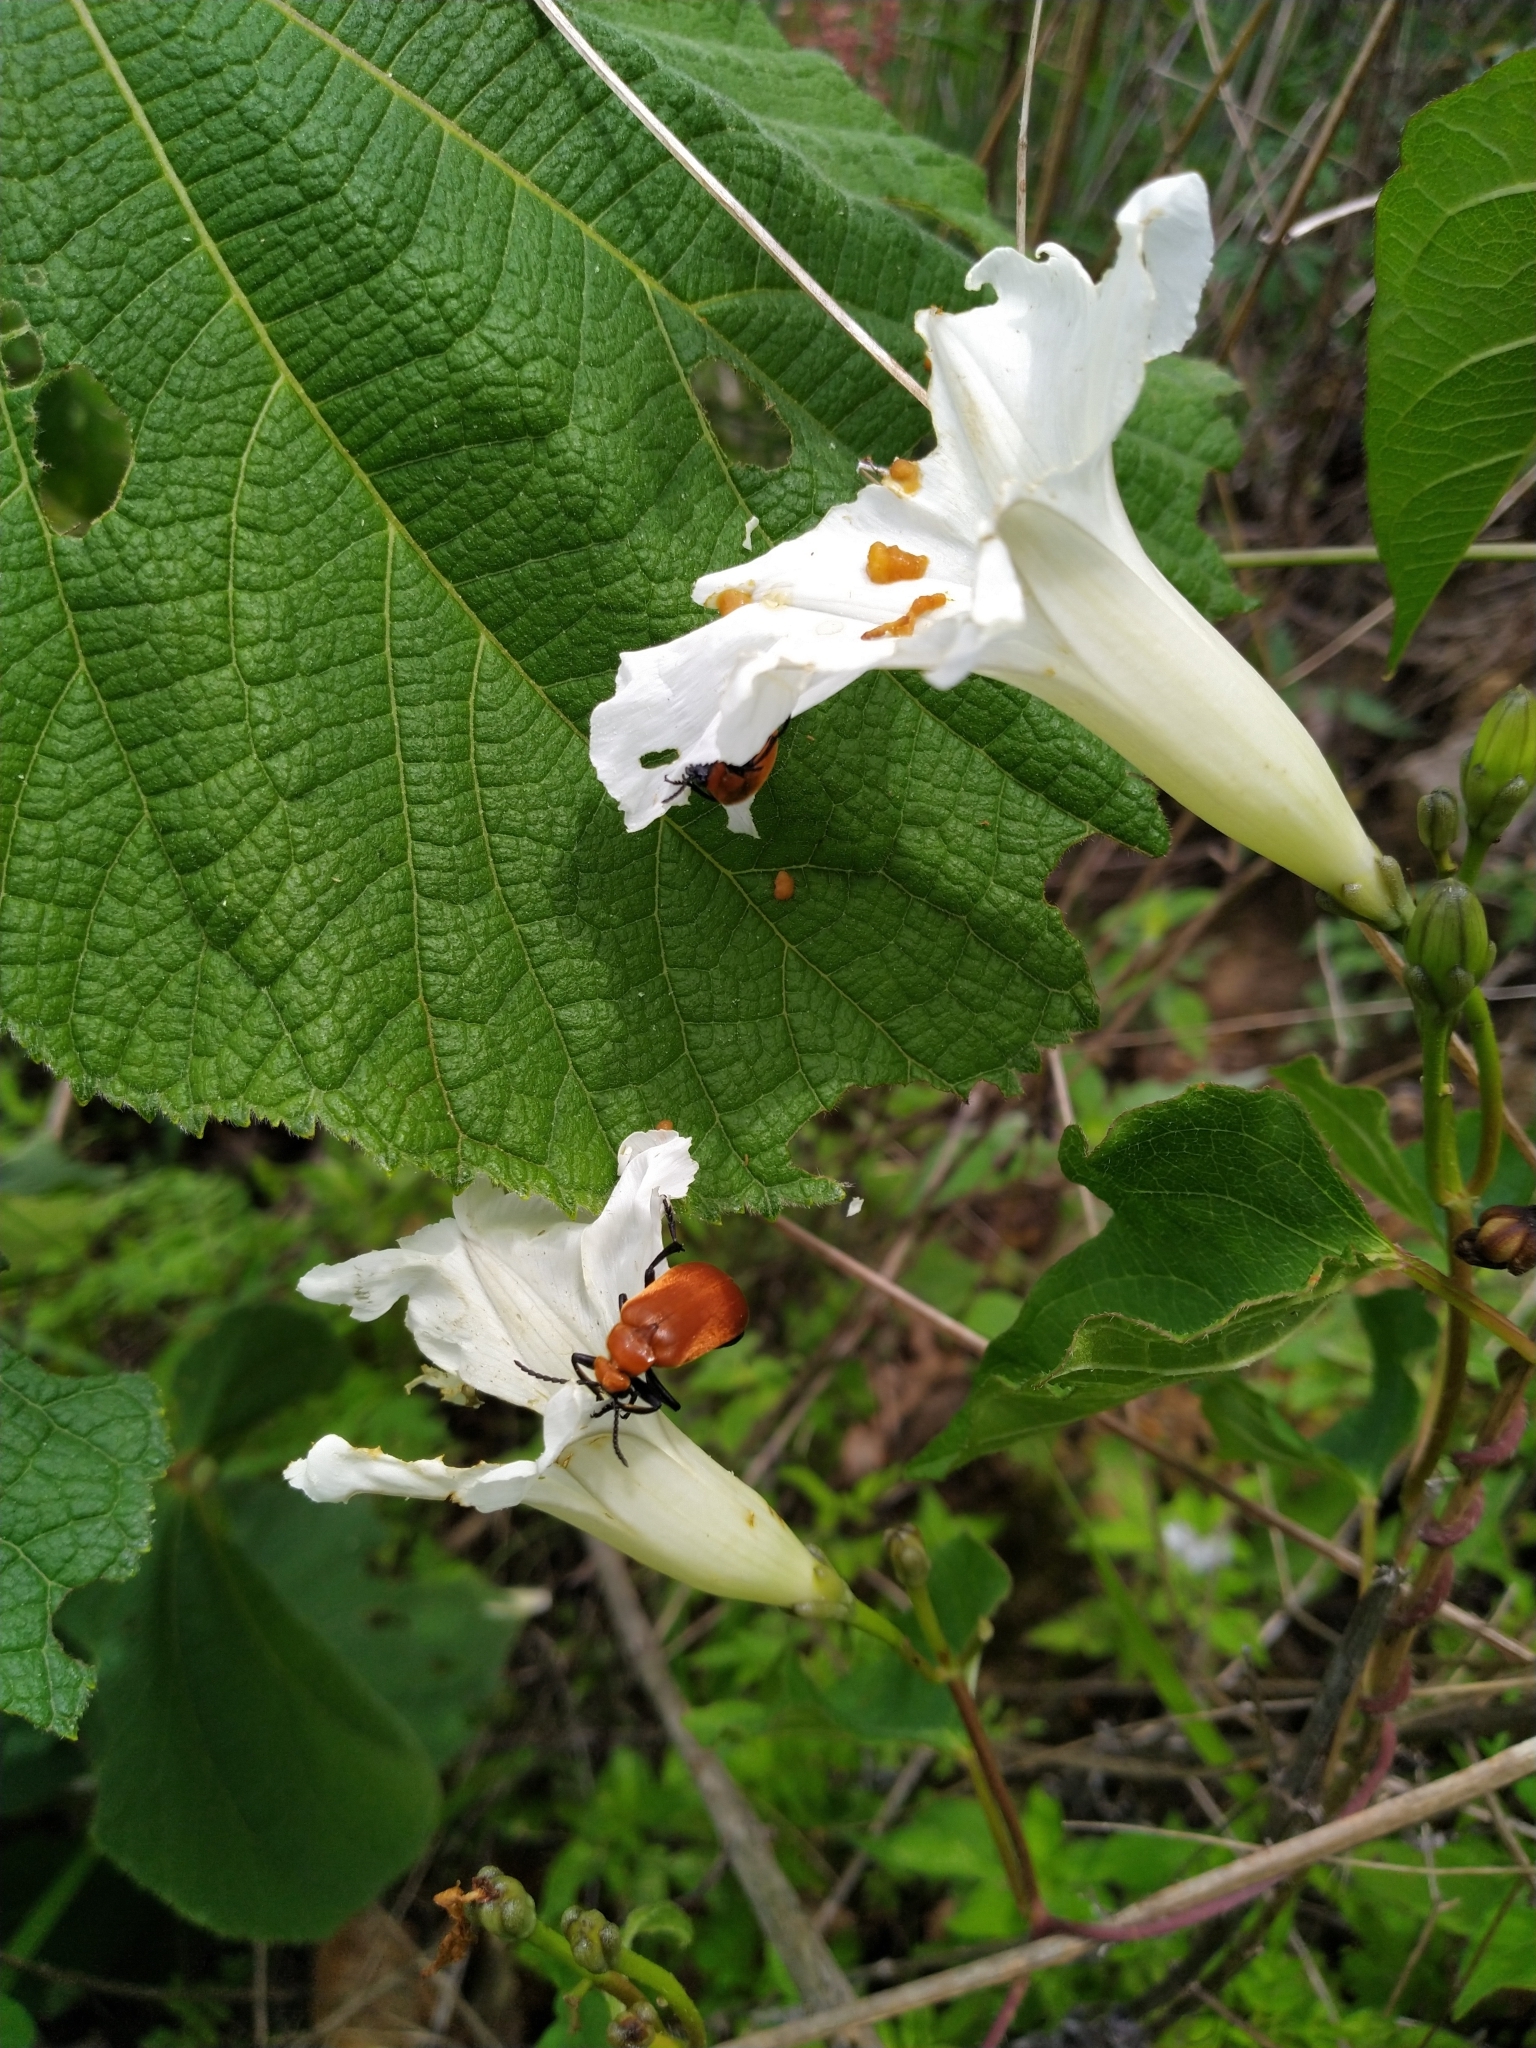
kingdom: Animalia
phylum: Arthropoda
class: Insecta
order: Coleoptera
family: Meloidae
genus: Tetraonyx
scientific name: Tetraonyx frontalis
